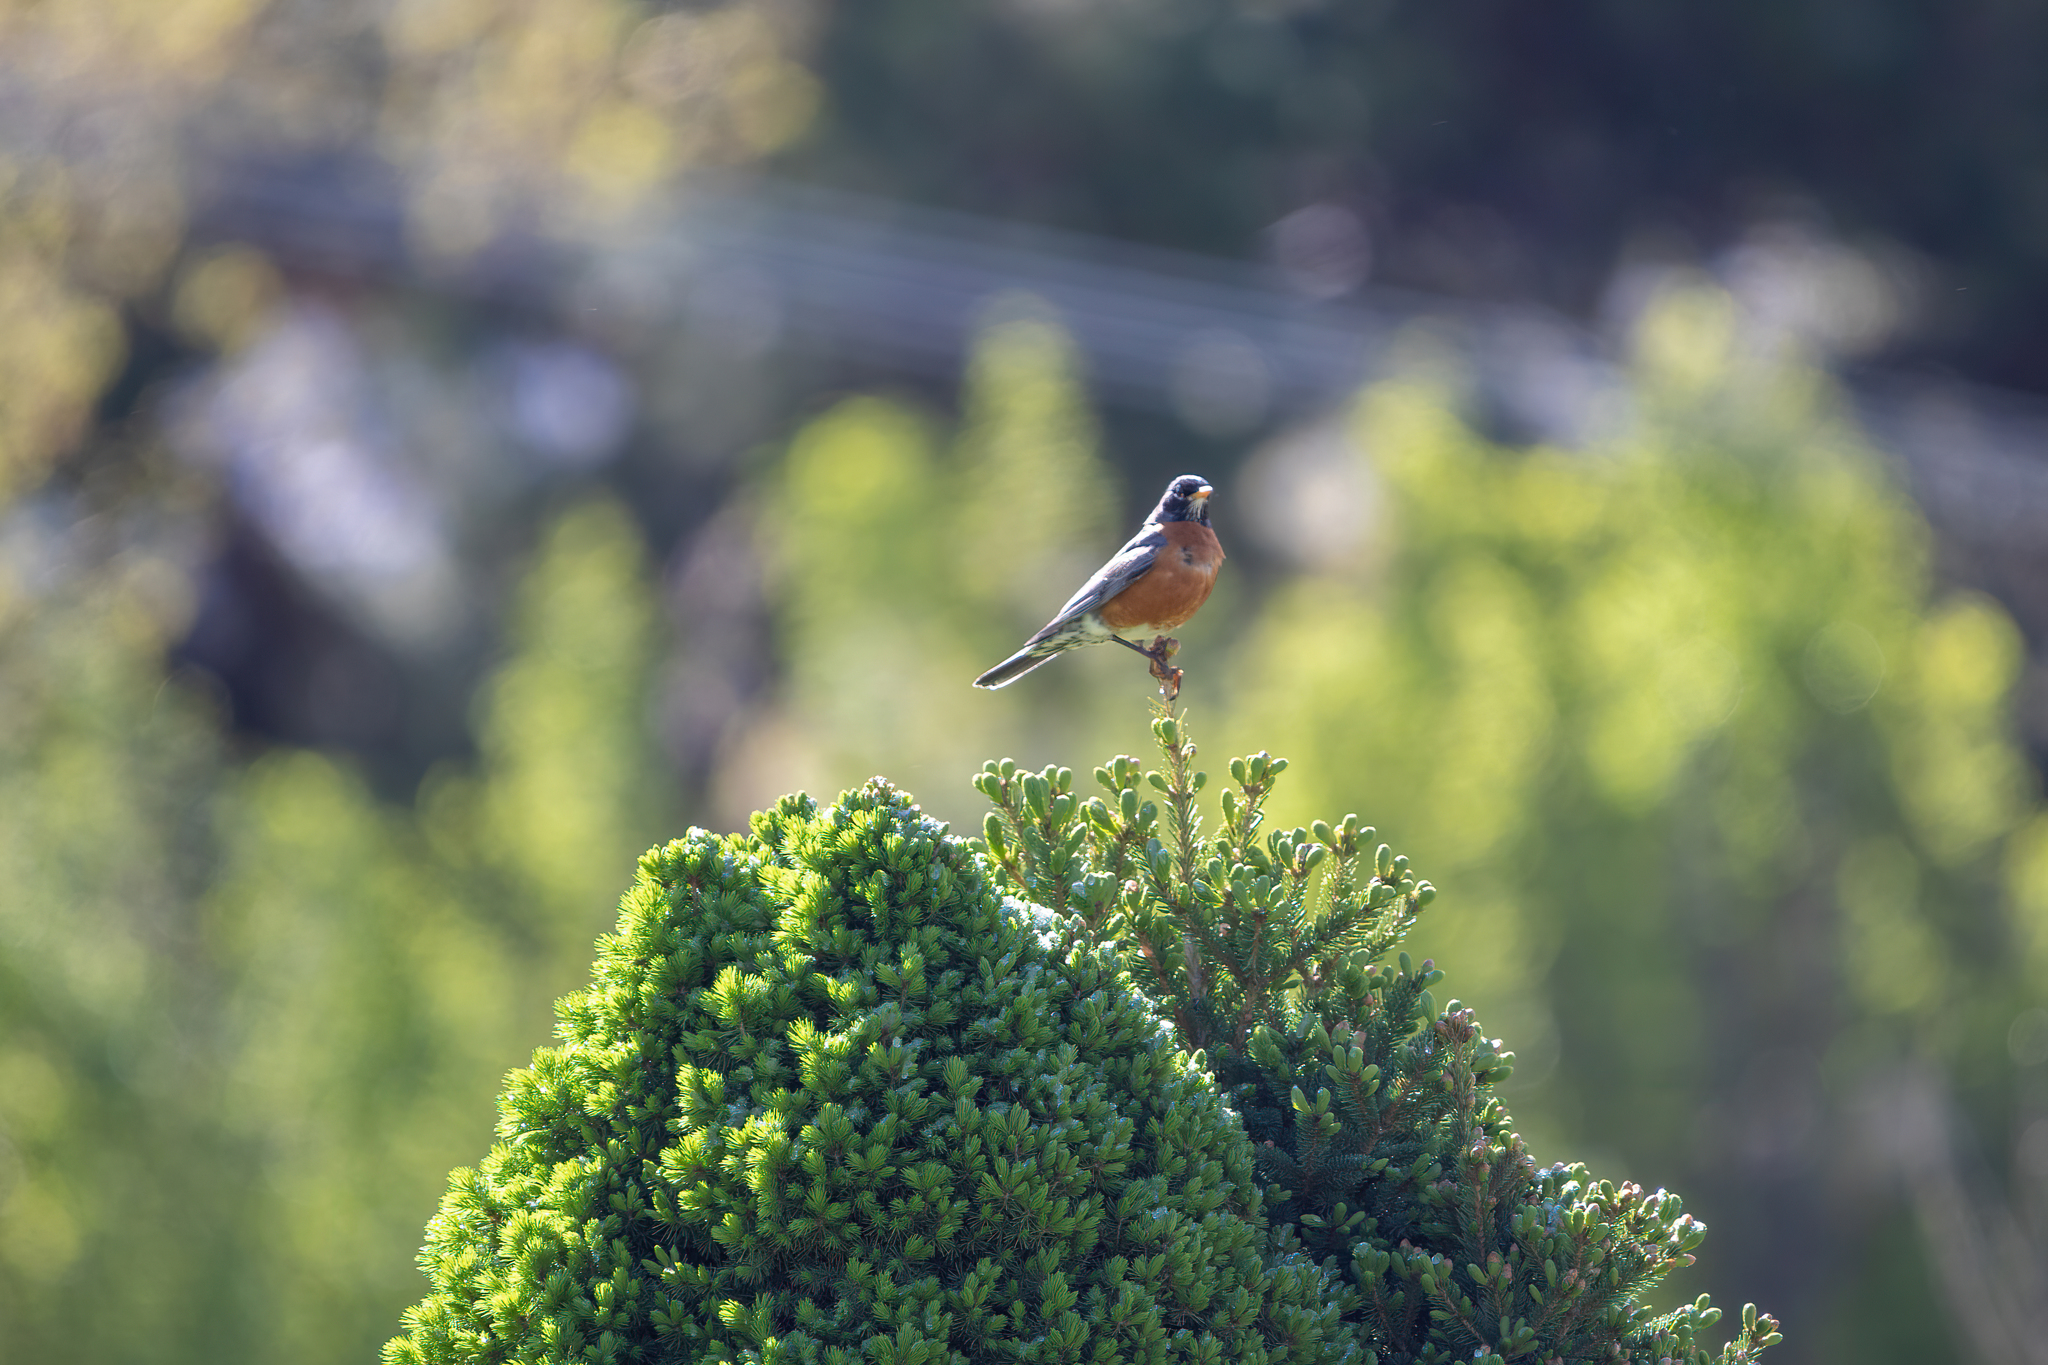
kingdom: Animalia
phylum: Chordata
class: Aves
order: Passeriformes
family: Turdidae
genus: Turdus
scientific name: Turdus migratorius
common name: American robin
